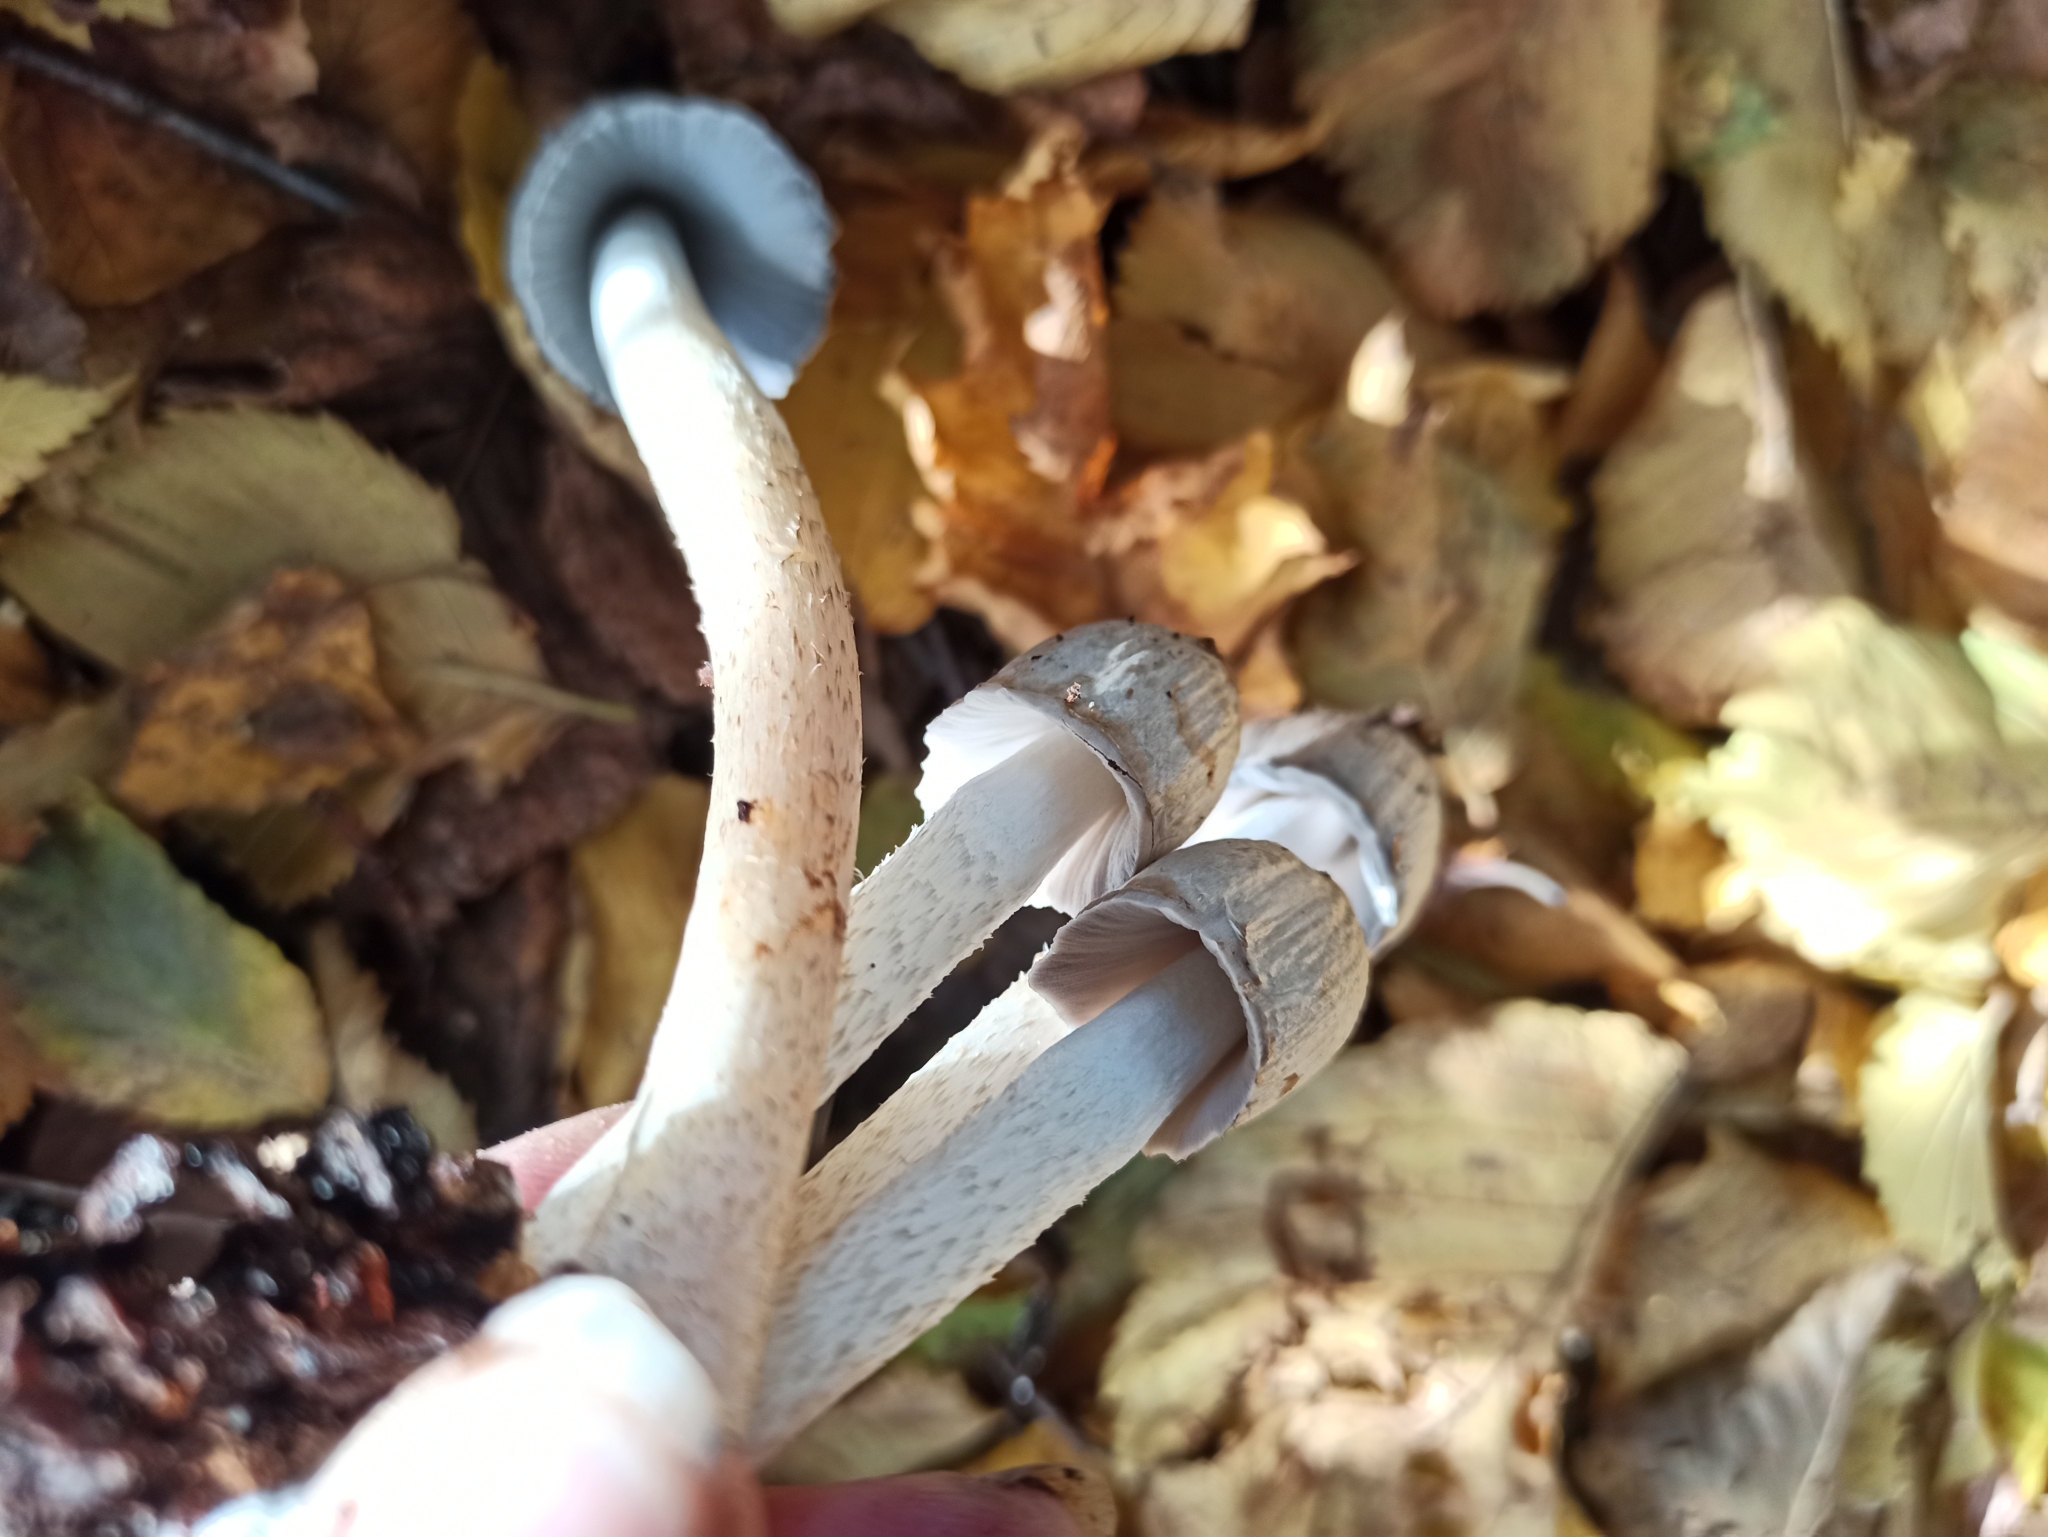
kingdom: Fungi
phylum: Basidiomycota
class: Agaricomycetes
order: Agaricales
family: Psathyrellaceae
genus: Coprinopsis
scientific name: Coprinopsis atramentaria
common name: Common ink-cap
